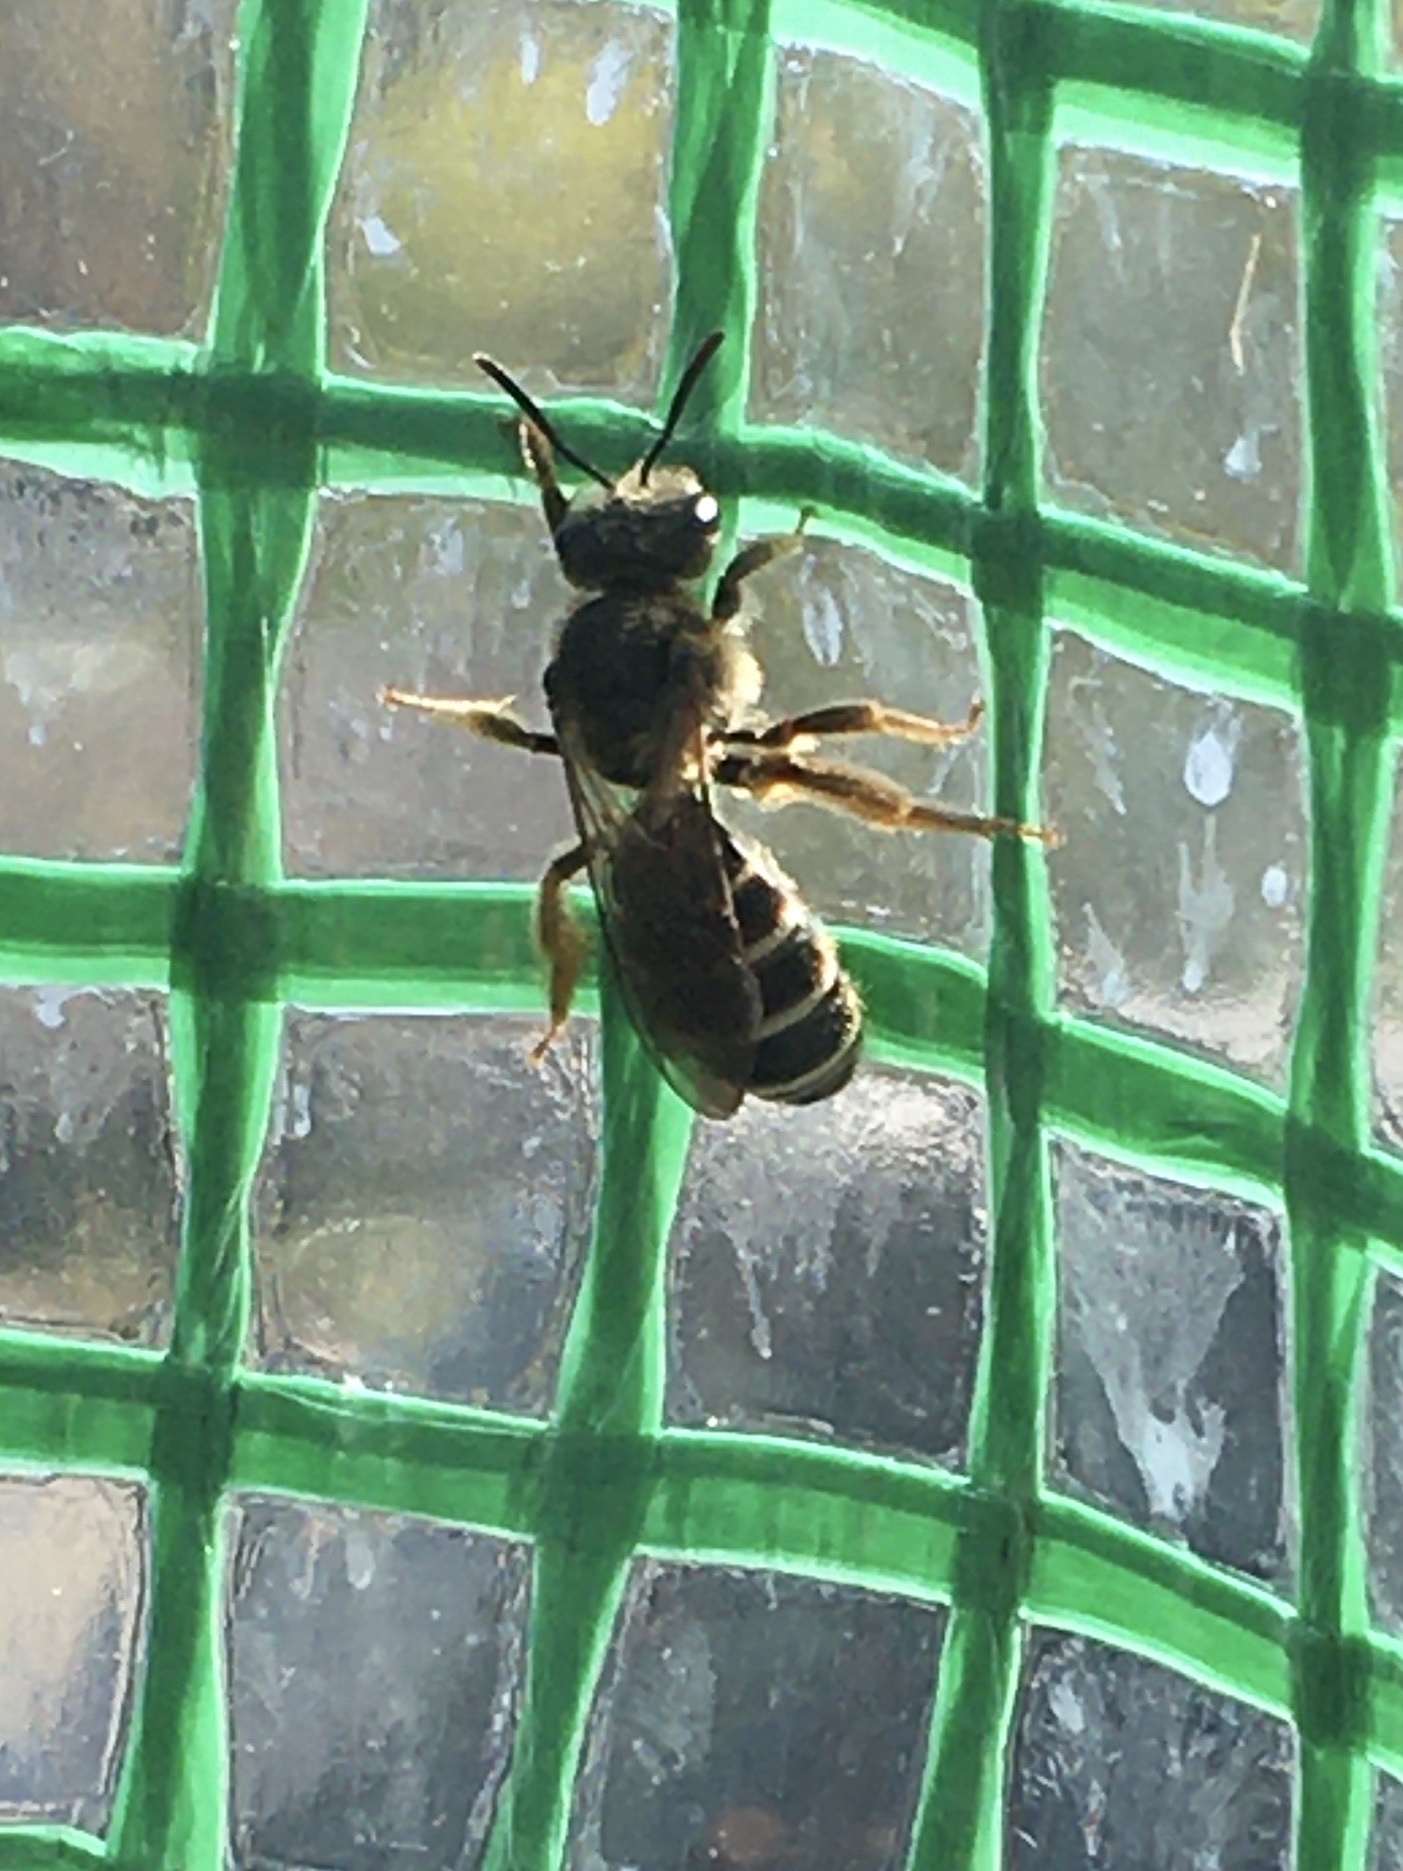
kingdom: Animalia
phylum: Arthropoda
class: Insecta
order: Hymenoptera
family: Halictidae
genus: Halictus
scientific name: Halictus rubicundus
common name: Orange-legged furrow bee
